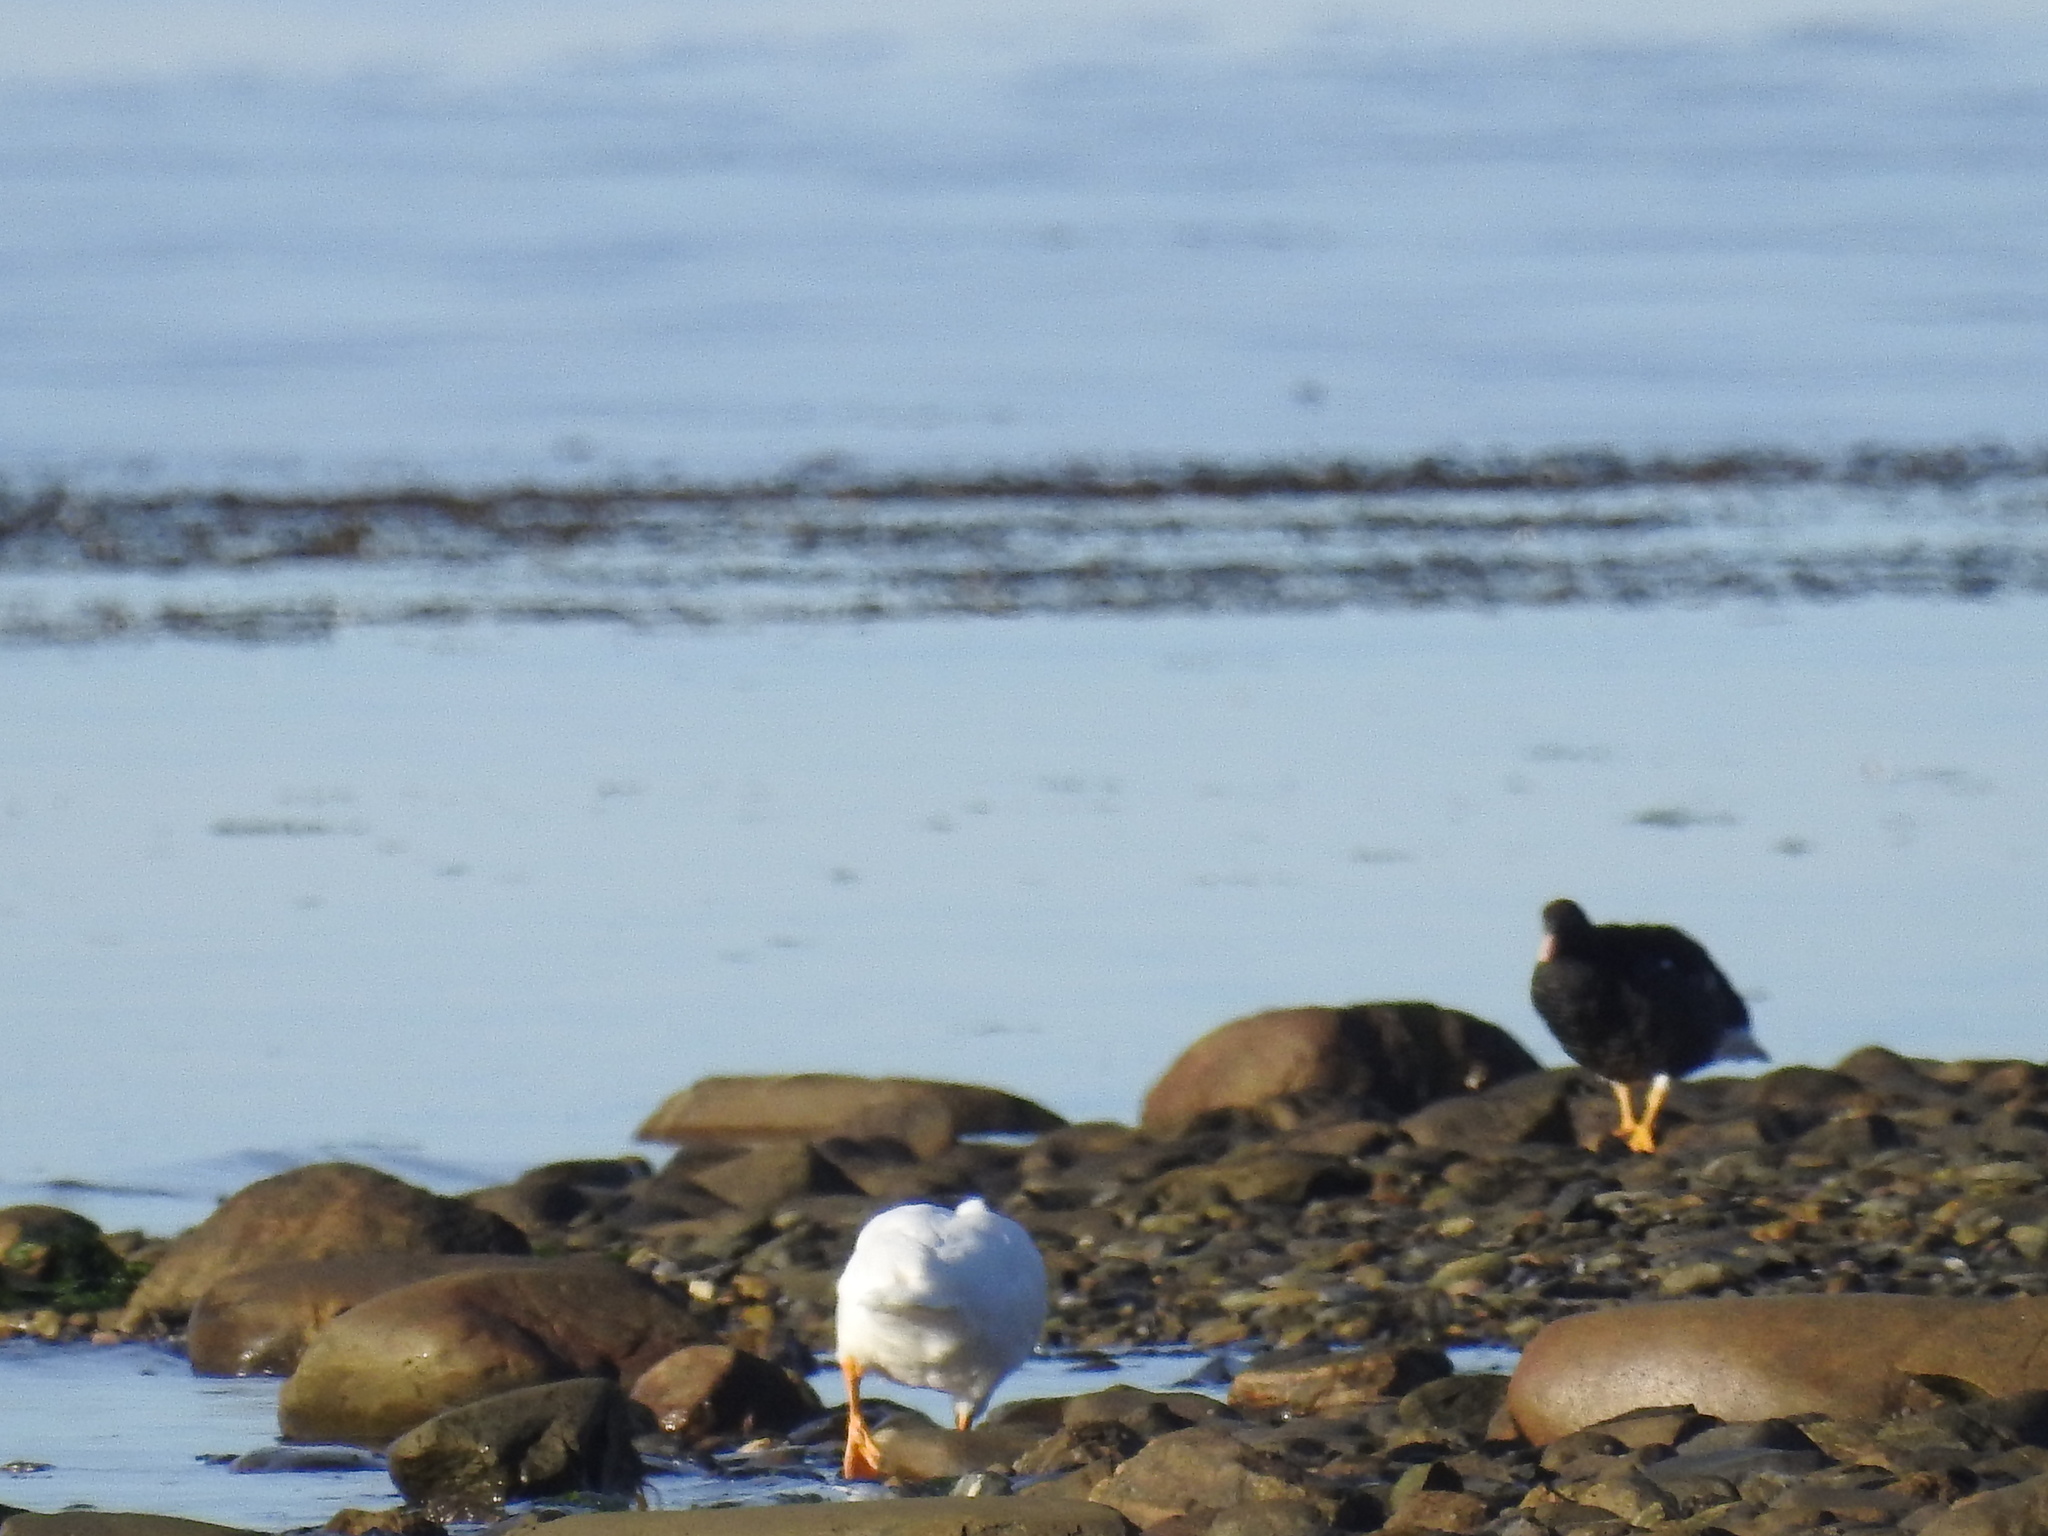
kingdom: Animalia
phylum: Chordata
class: Aves
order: Anseriformes
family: Anatidae
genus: Chloephaga
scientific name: Chloephaga hybrida
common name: Kelp goose
